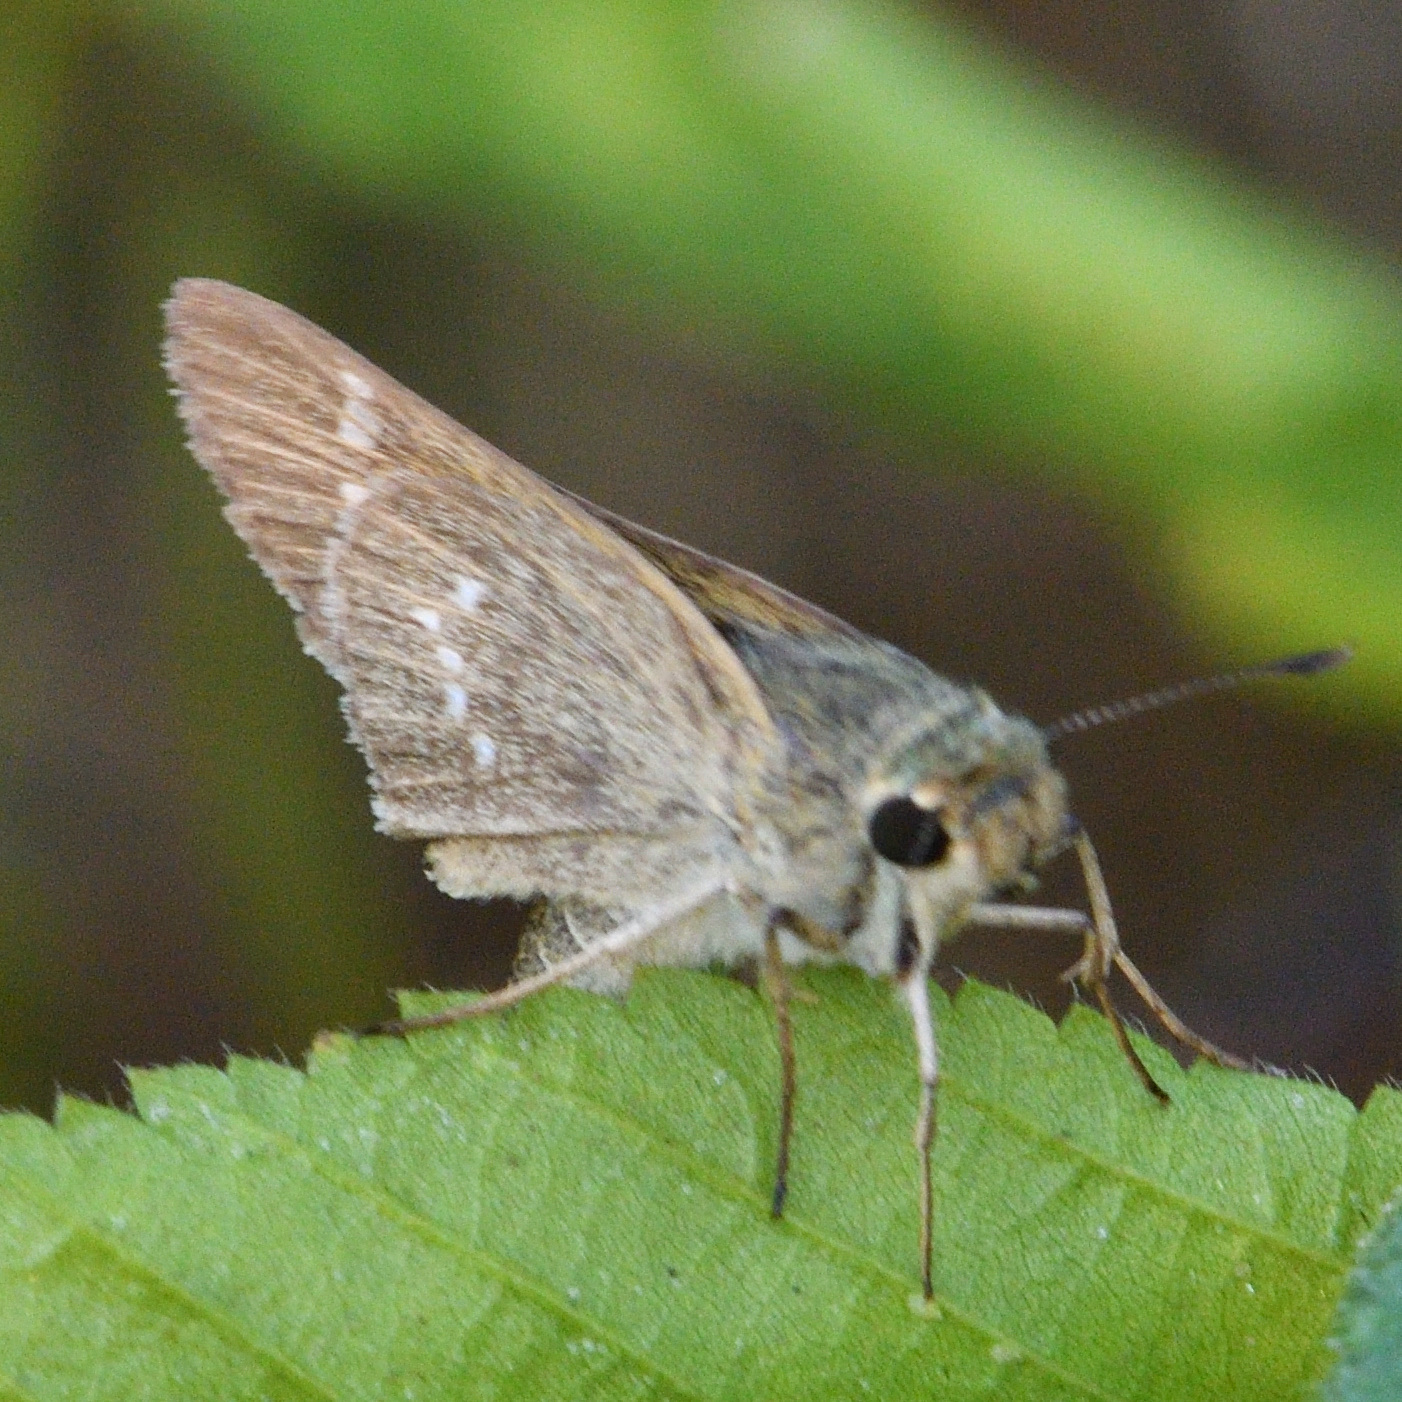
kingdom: Animalia
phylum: Arthropoda
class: Insecta
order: Lepidoptera
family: Hesperiidae
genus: Parnara
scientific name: Parnara naso
